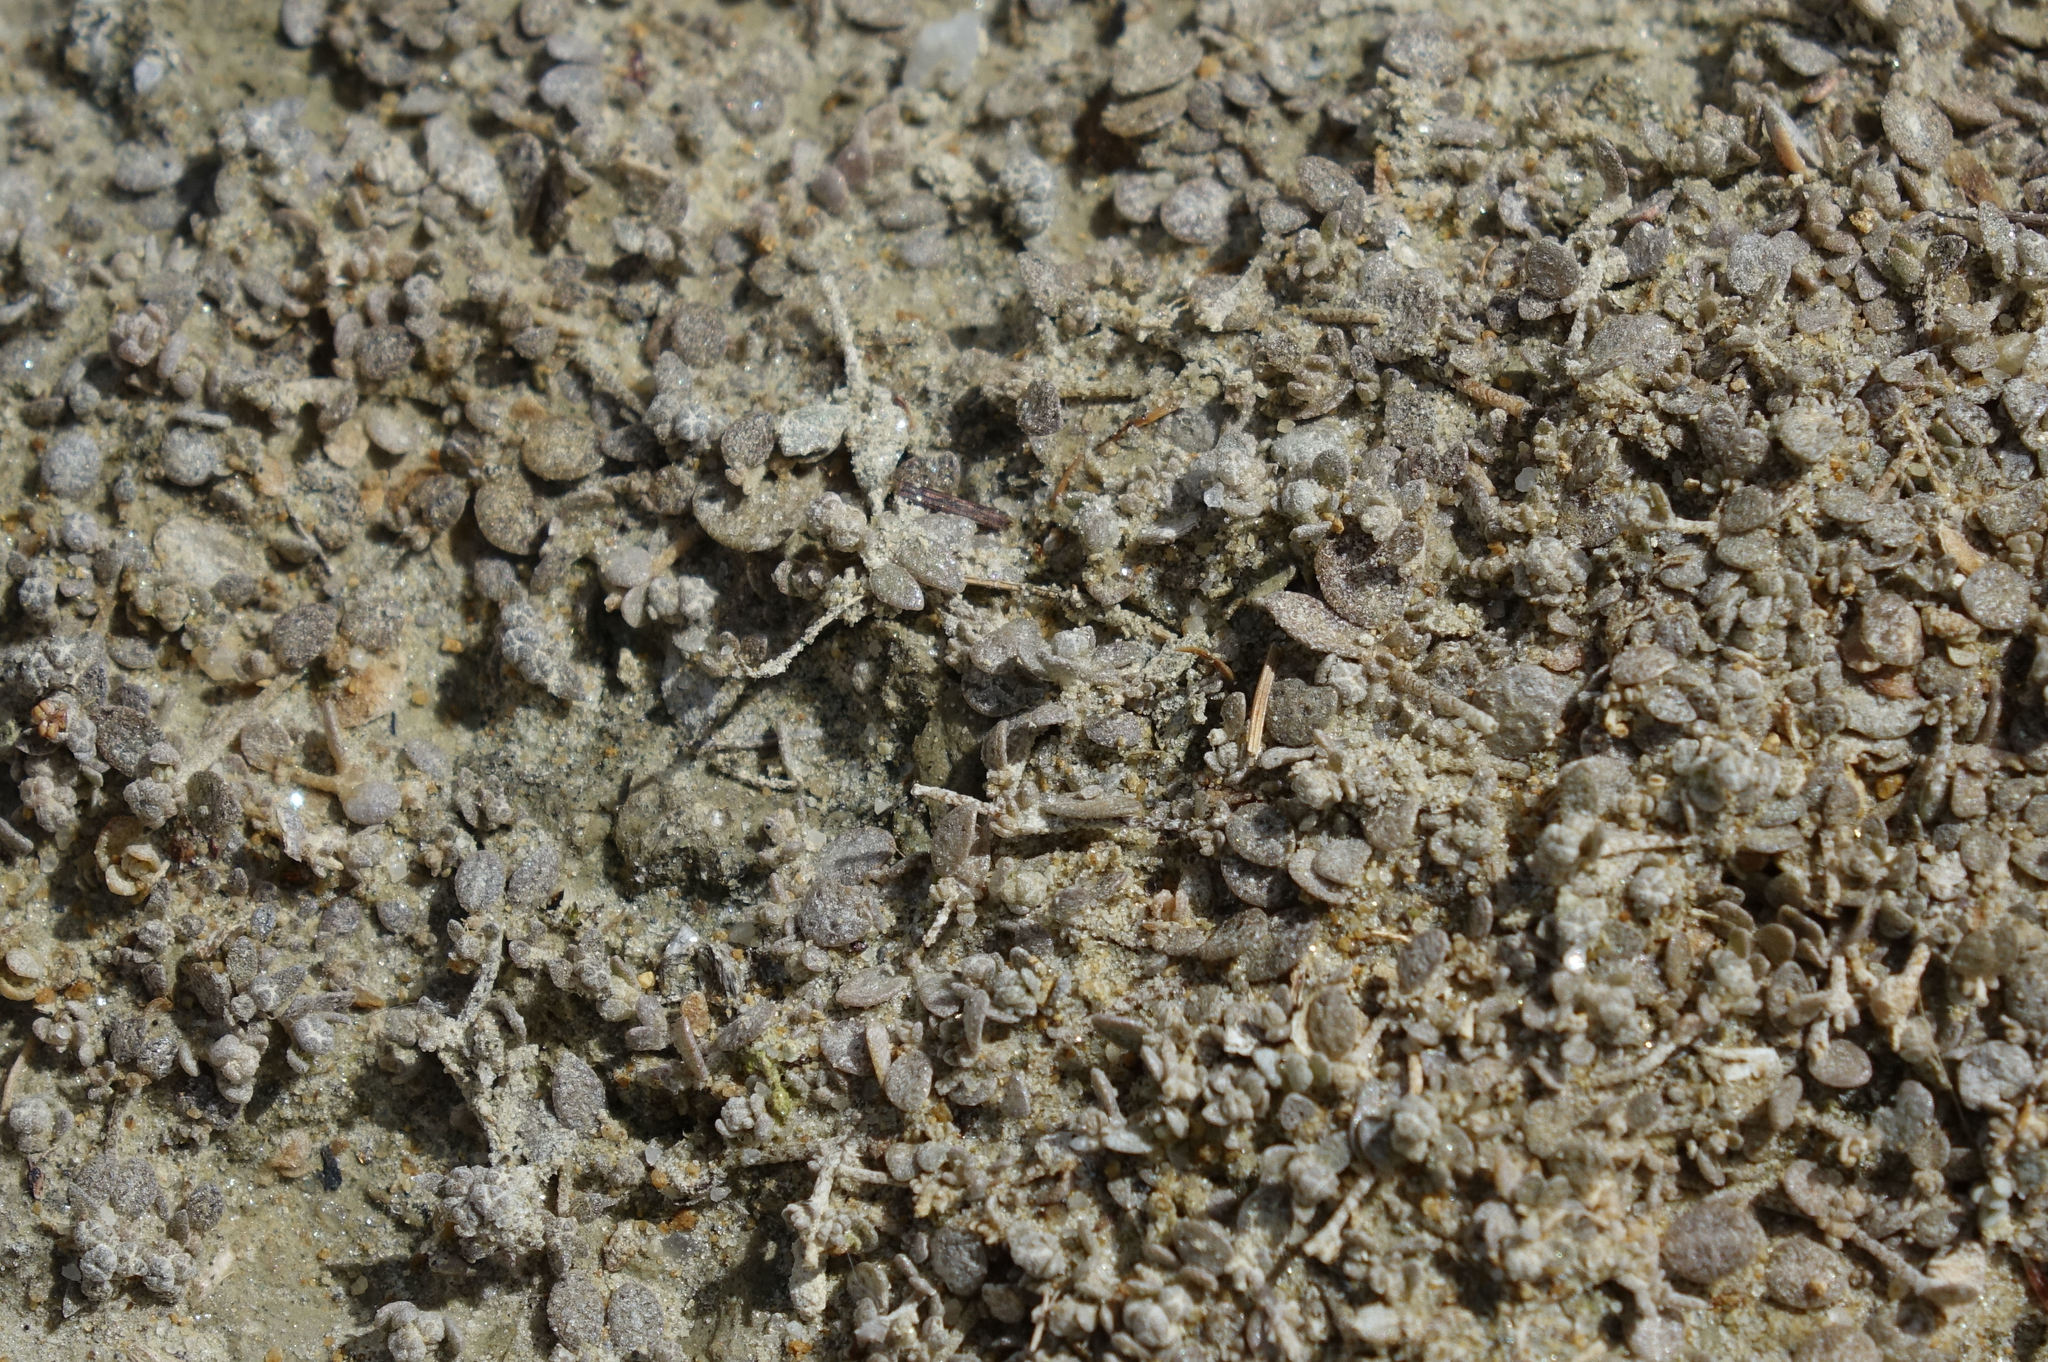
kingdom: Plantae
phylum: Tracheophyta
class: Magnoliopsida
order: Caryophyllales
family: Amaranthaceae
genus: Atriplex
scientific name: Atriplex buchananii
